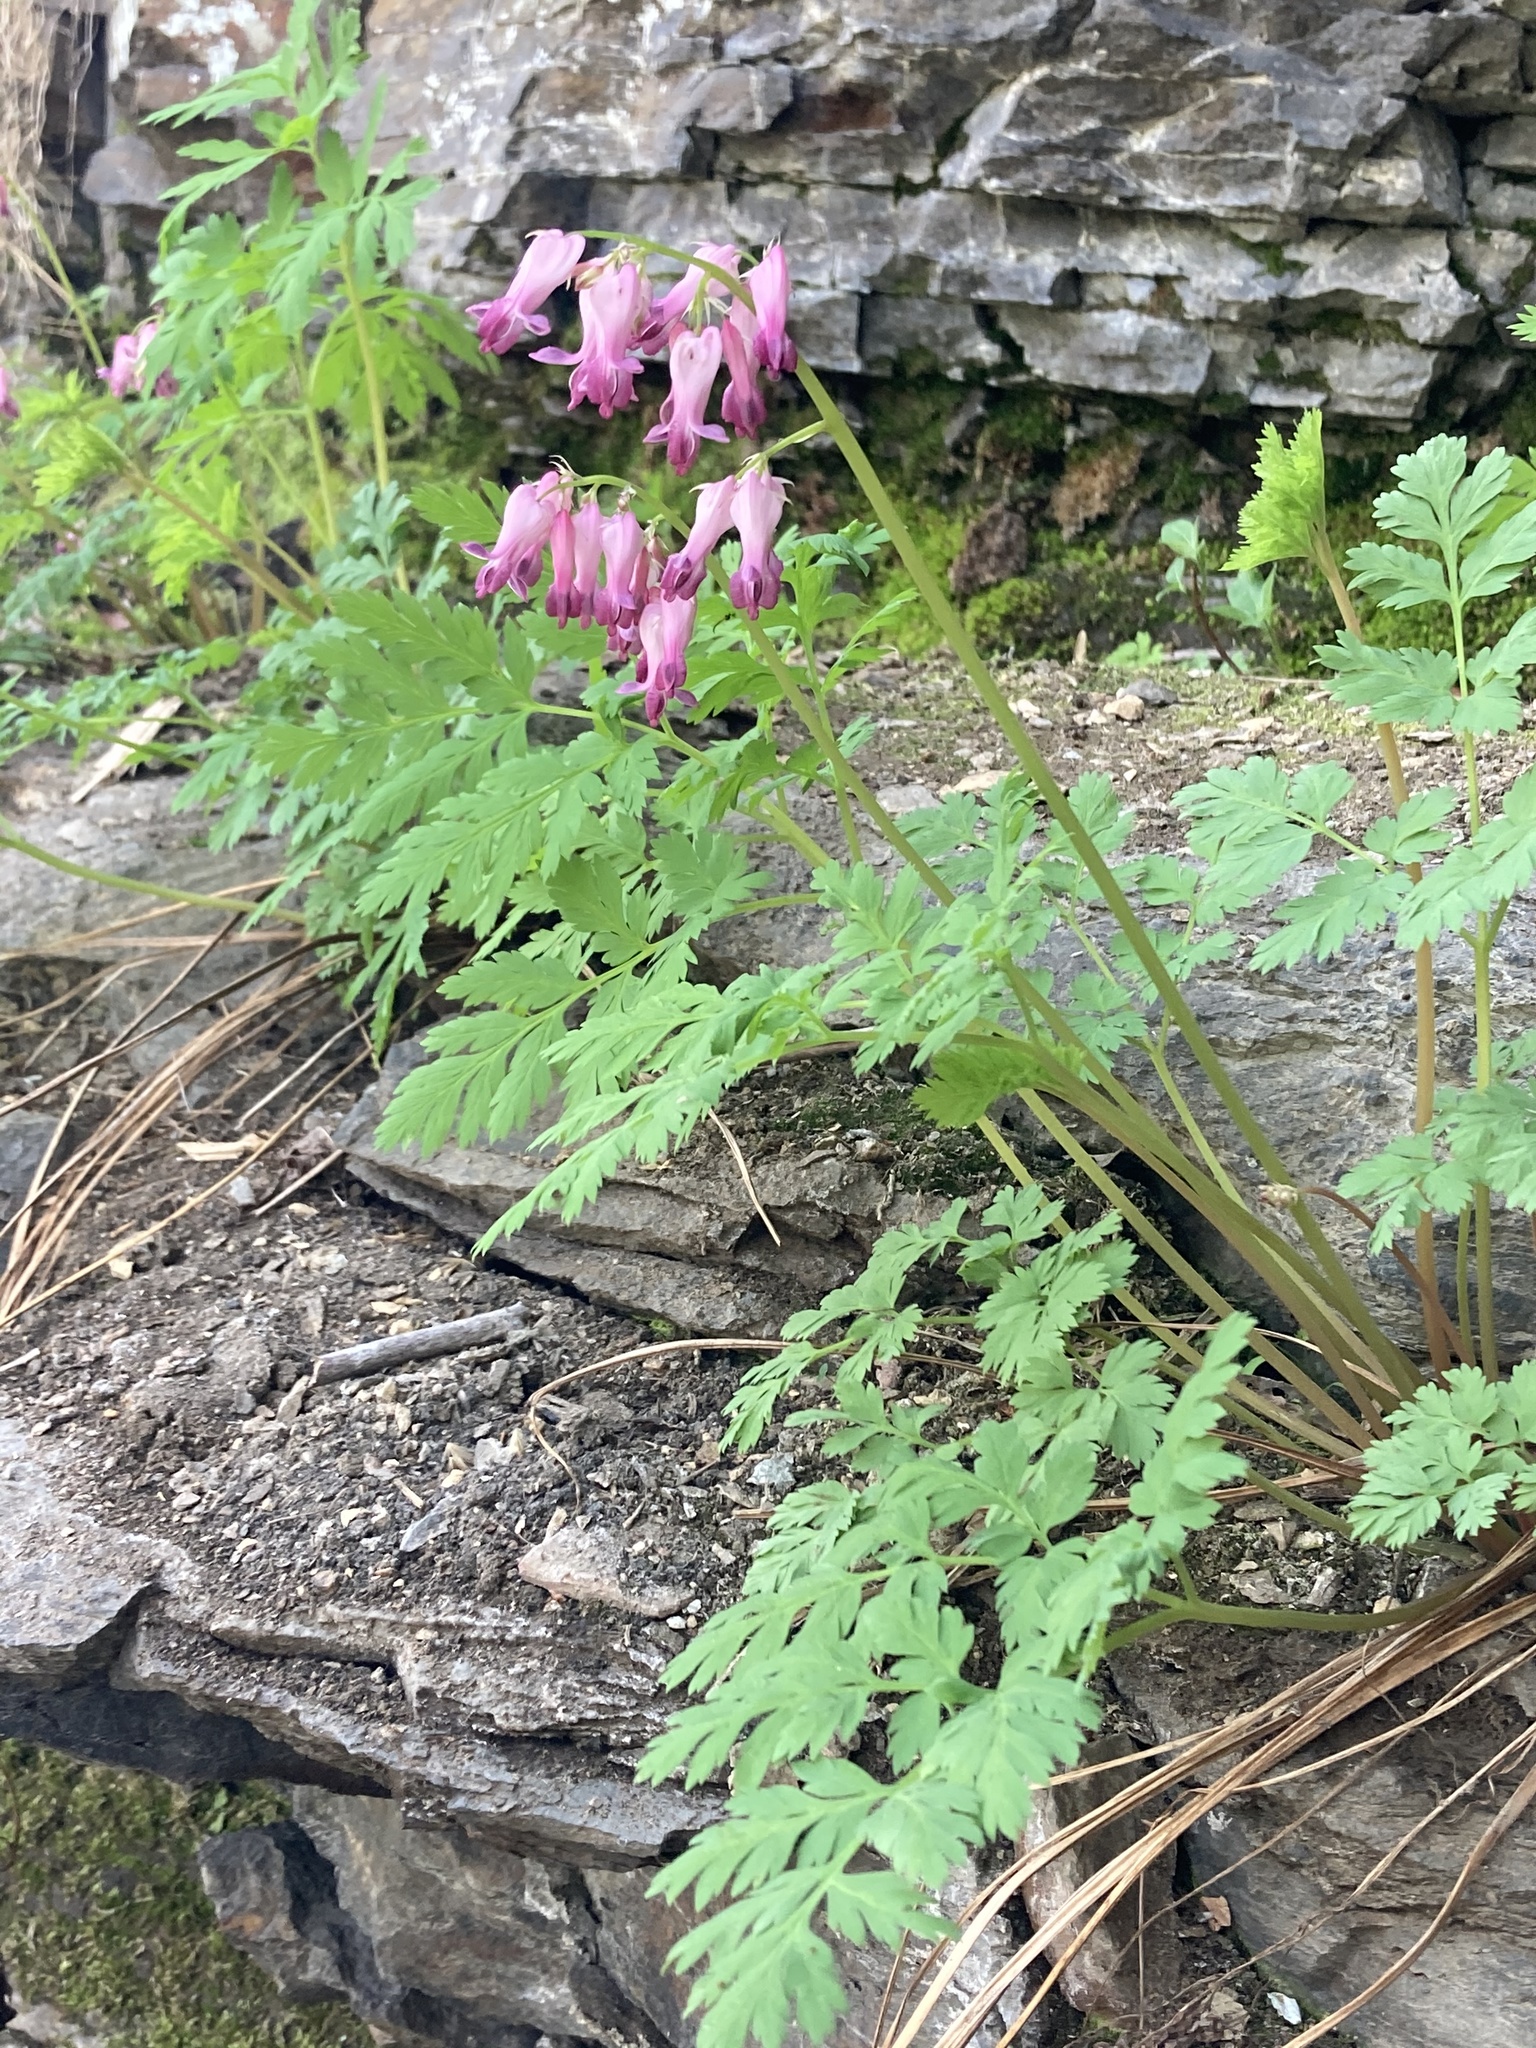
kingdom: Plantae
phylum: Tracheophyta
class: Magnoliopsida
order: Ranunculales
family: Papaveraceae
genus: Dicentra
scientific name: Dicentra eximia
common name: Turkey-corn
